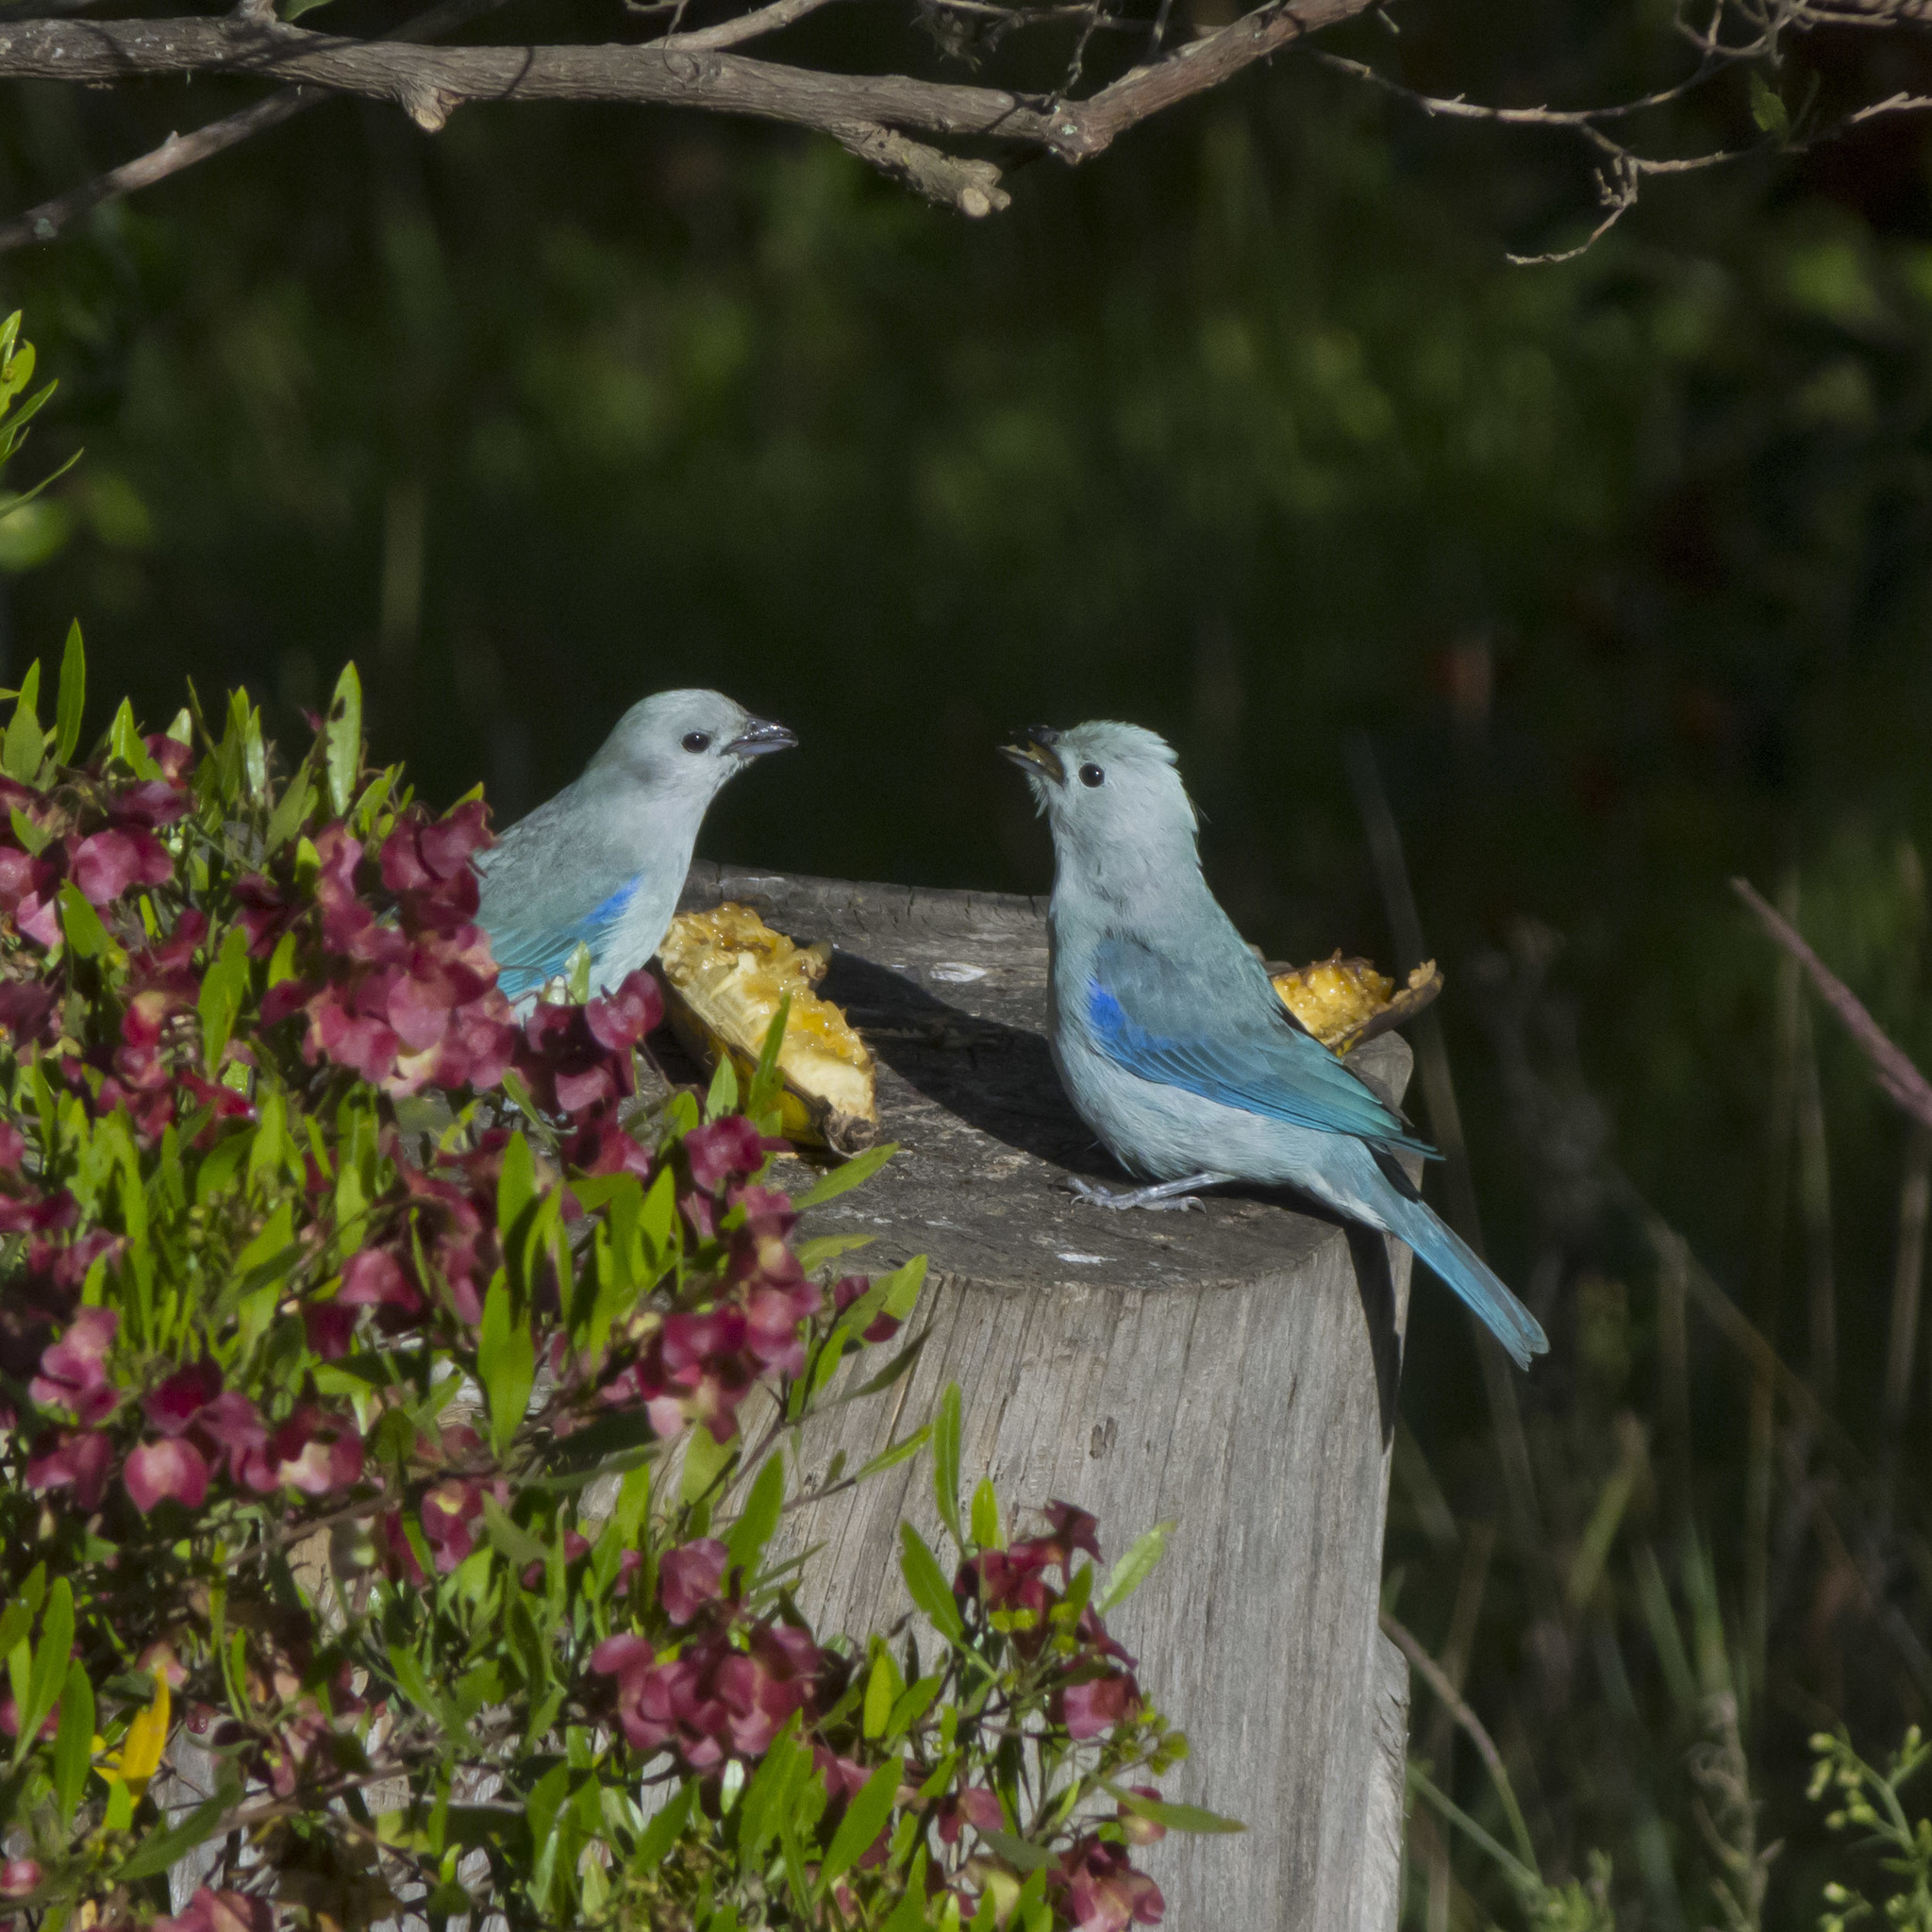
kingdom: Animalia
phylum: Chordata
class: Aves
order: Passeriformes
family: Thraupidae
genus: Thraupis
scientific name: Thraupis episcopus
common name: Blue-grey tanager
